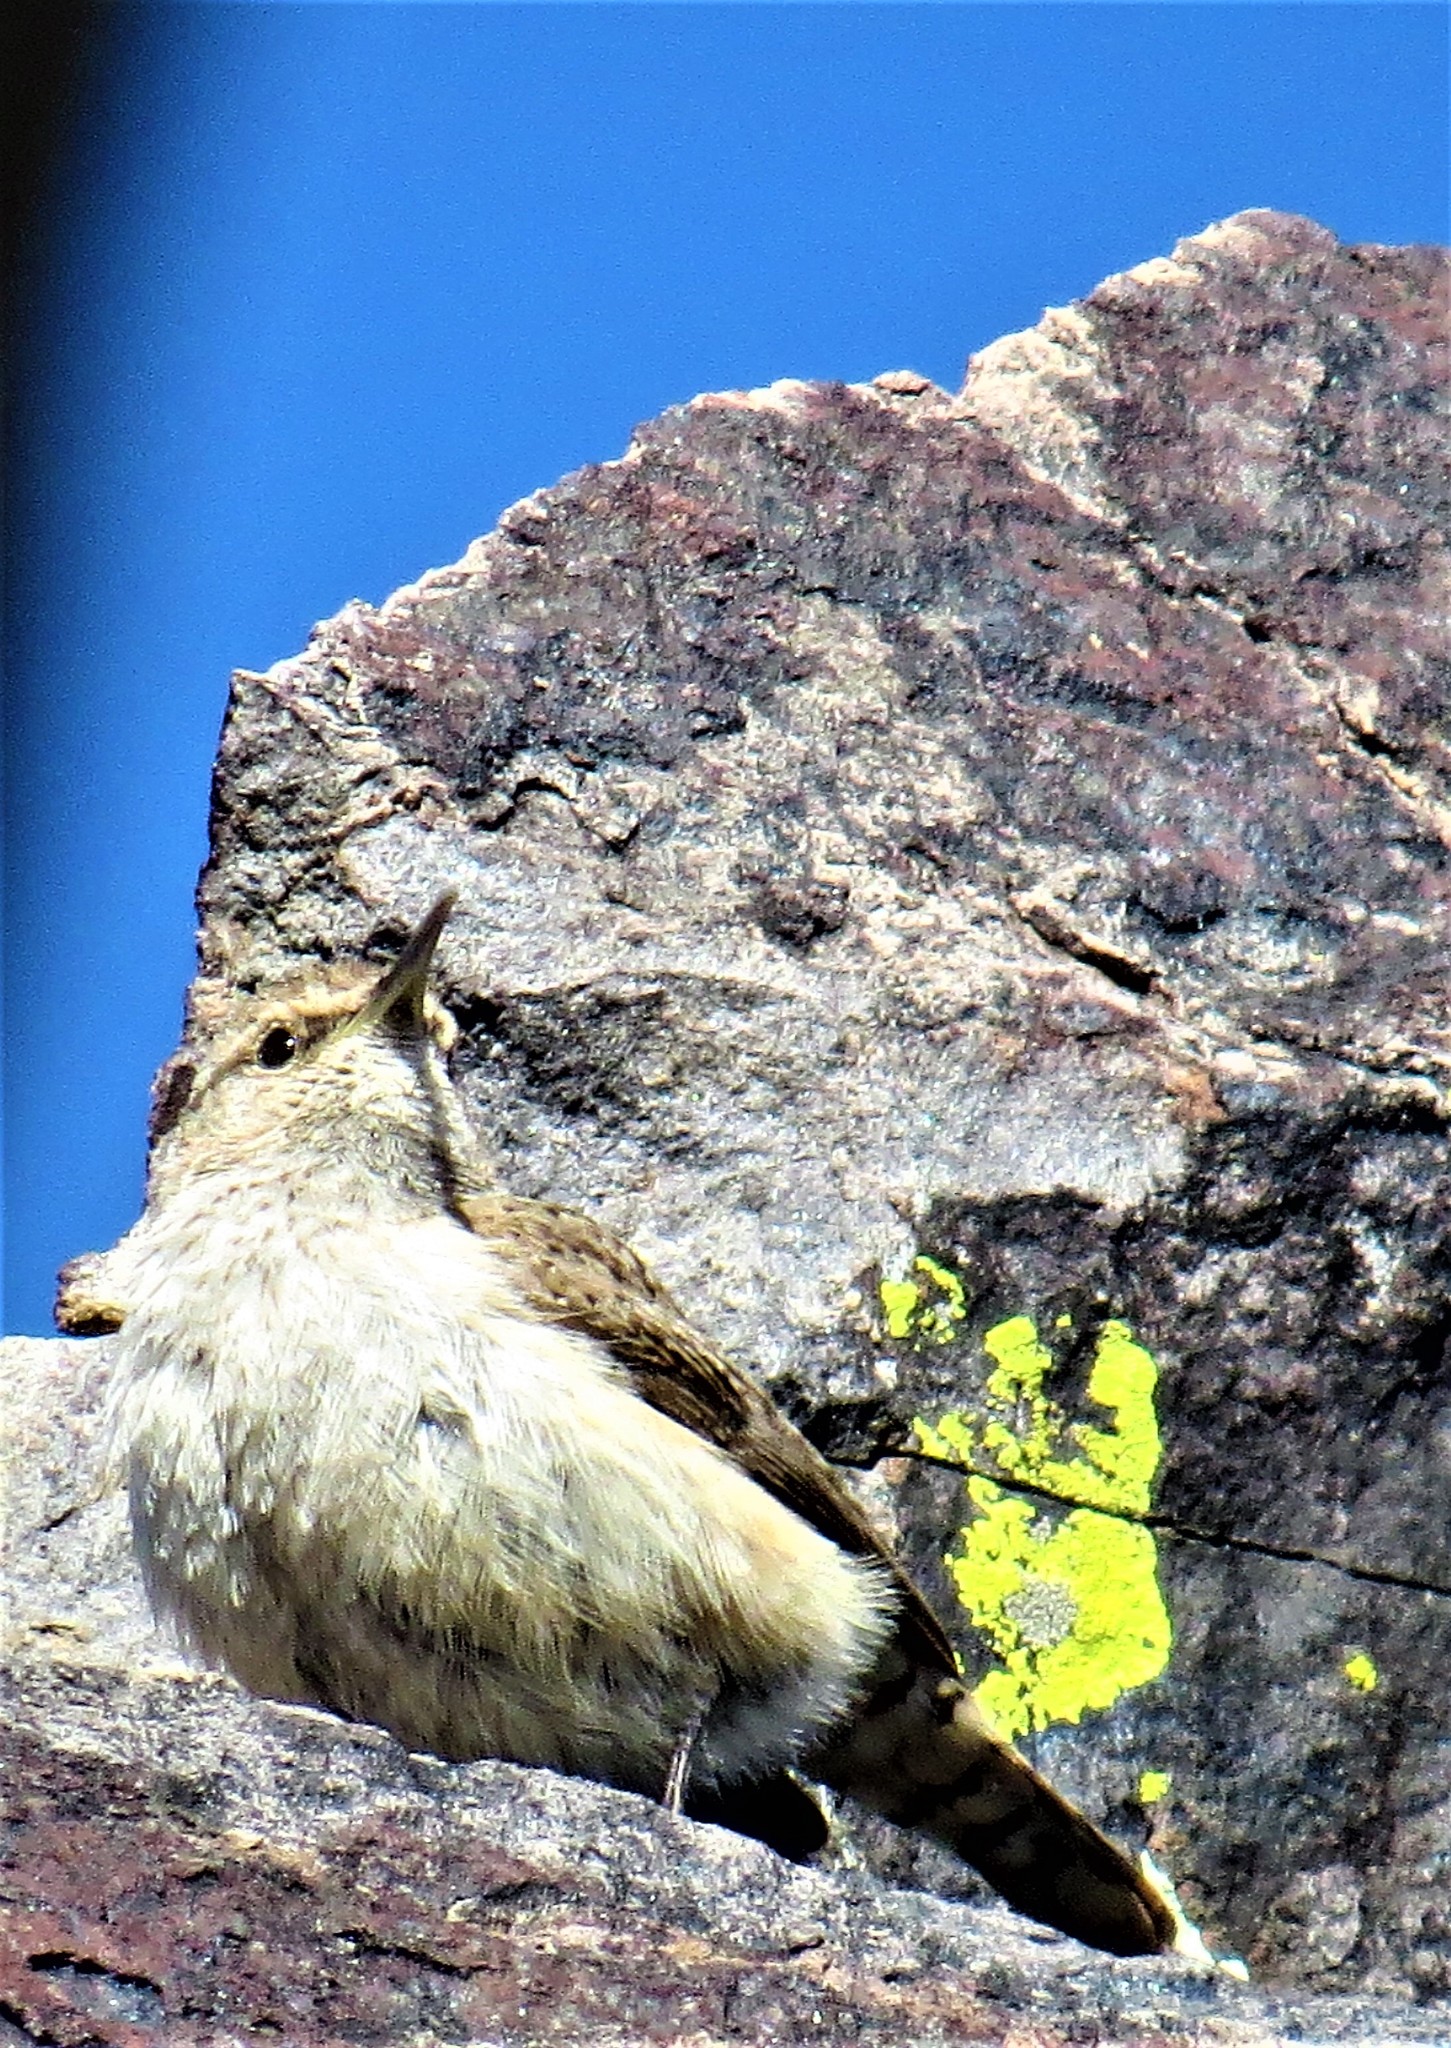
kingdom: Animalia
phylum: Chordata
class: Aves
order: Passeriformes
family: Troglodytidae
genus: Salpinctes
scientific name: Salpinctes obsoletus
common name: Rock wren
